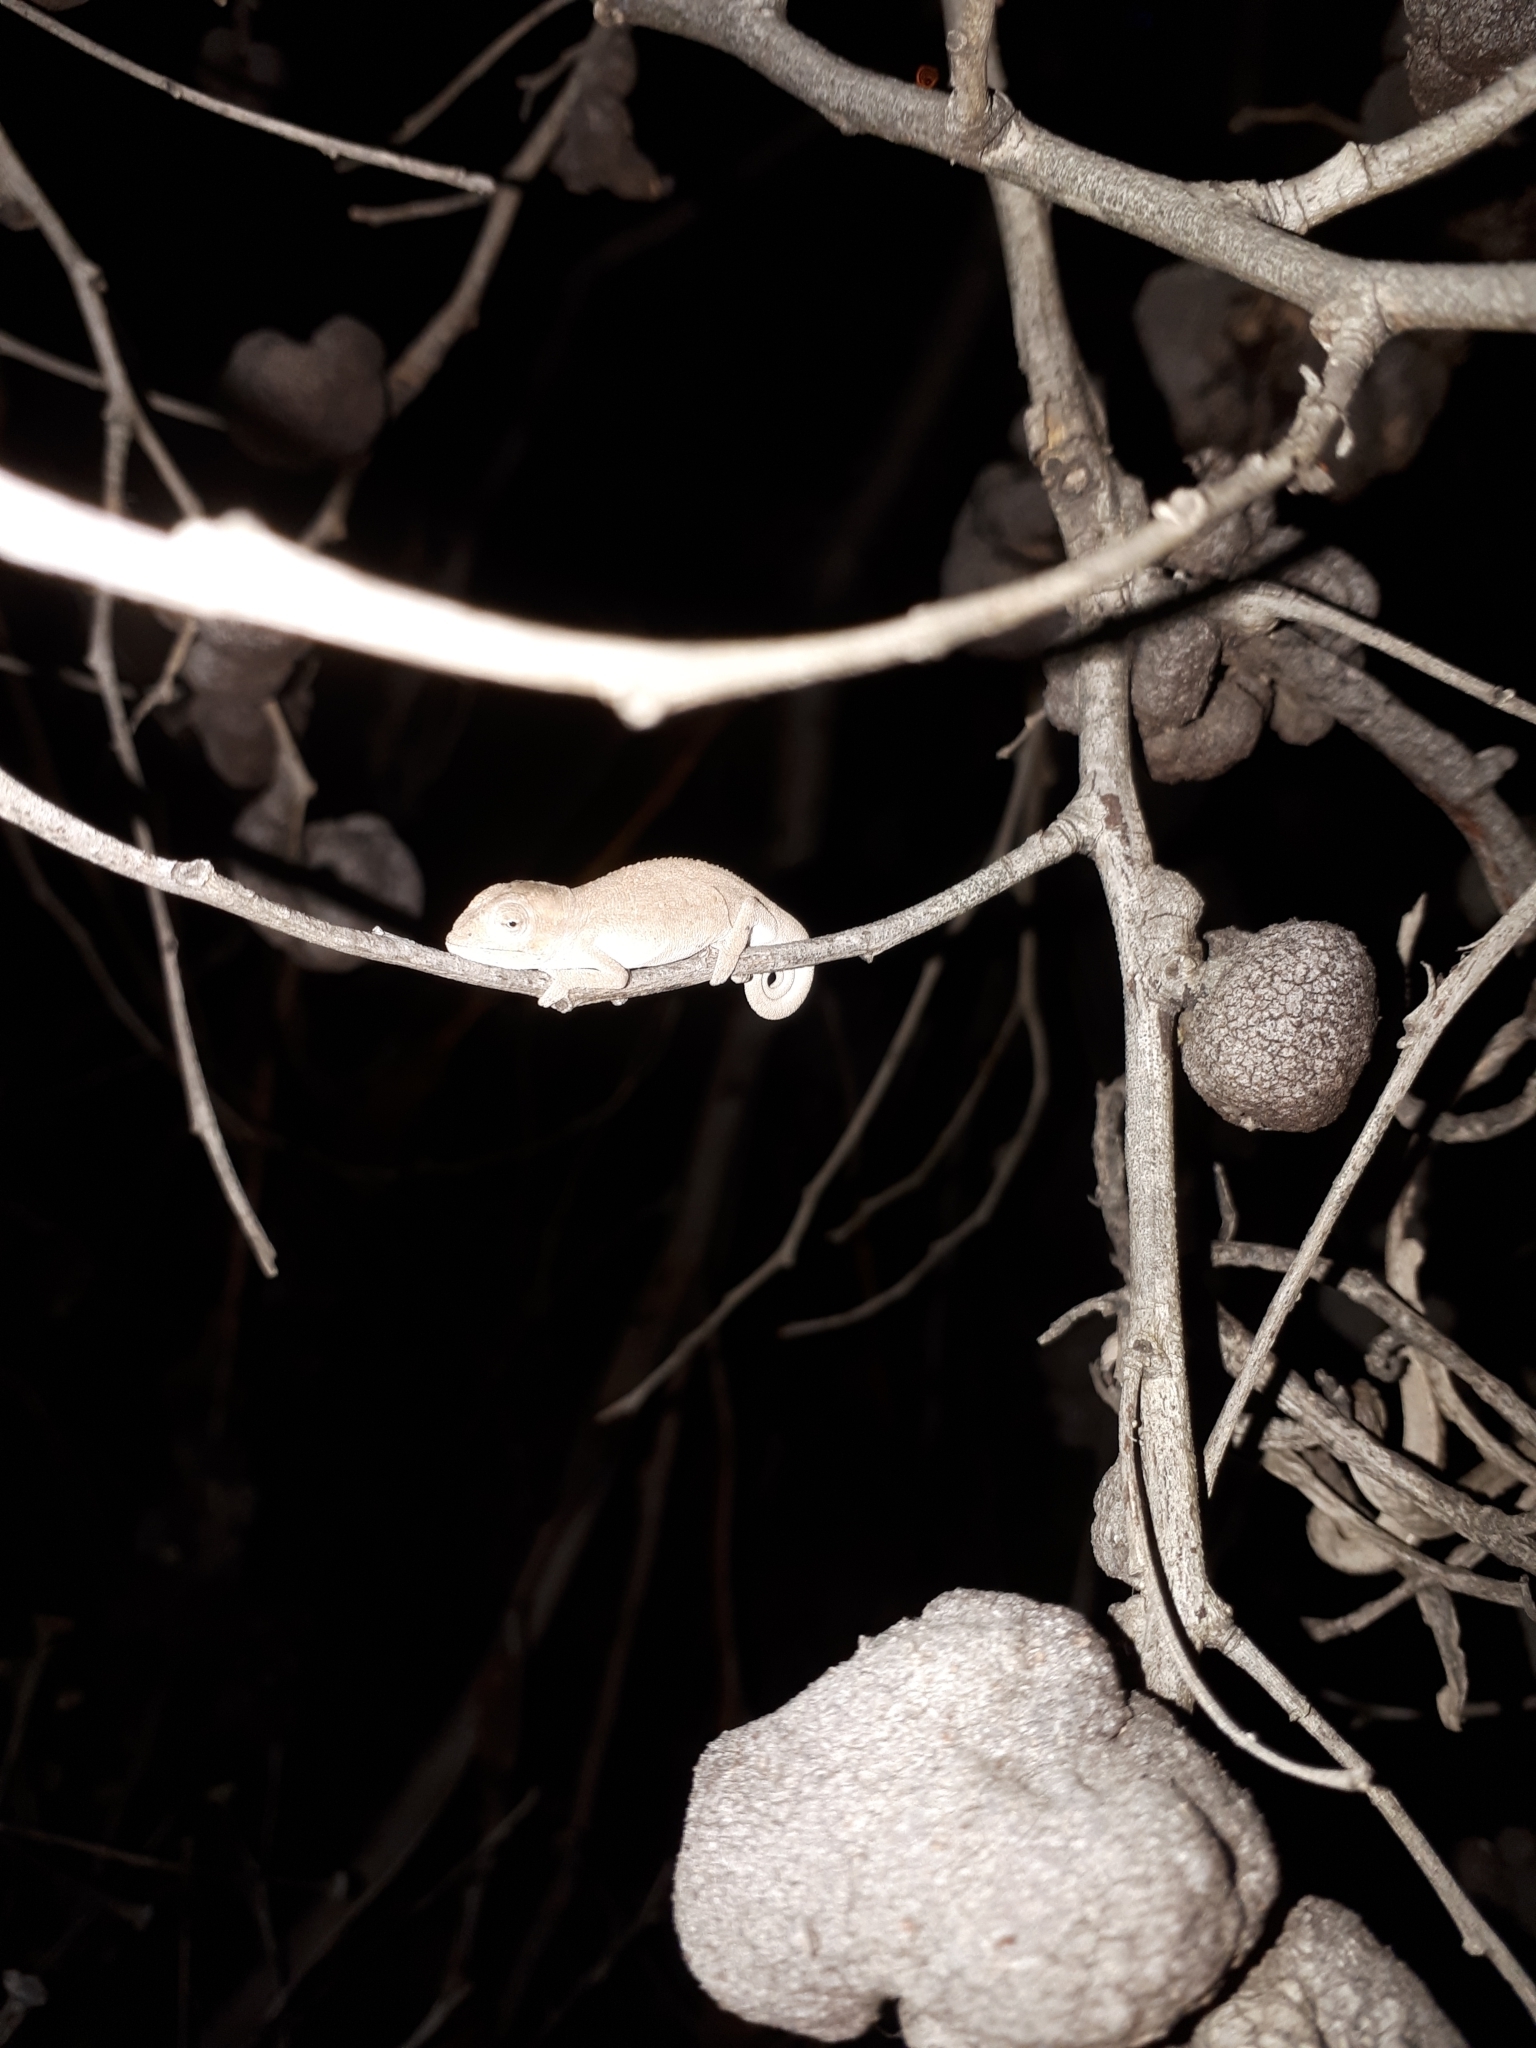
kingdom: Animalia
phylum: Chordata
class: Squamata
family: Chamaeleonidae
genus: Bradypodion
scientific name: Bradypodion pumilum
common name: Cape dwarf chameleon
